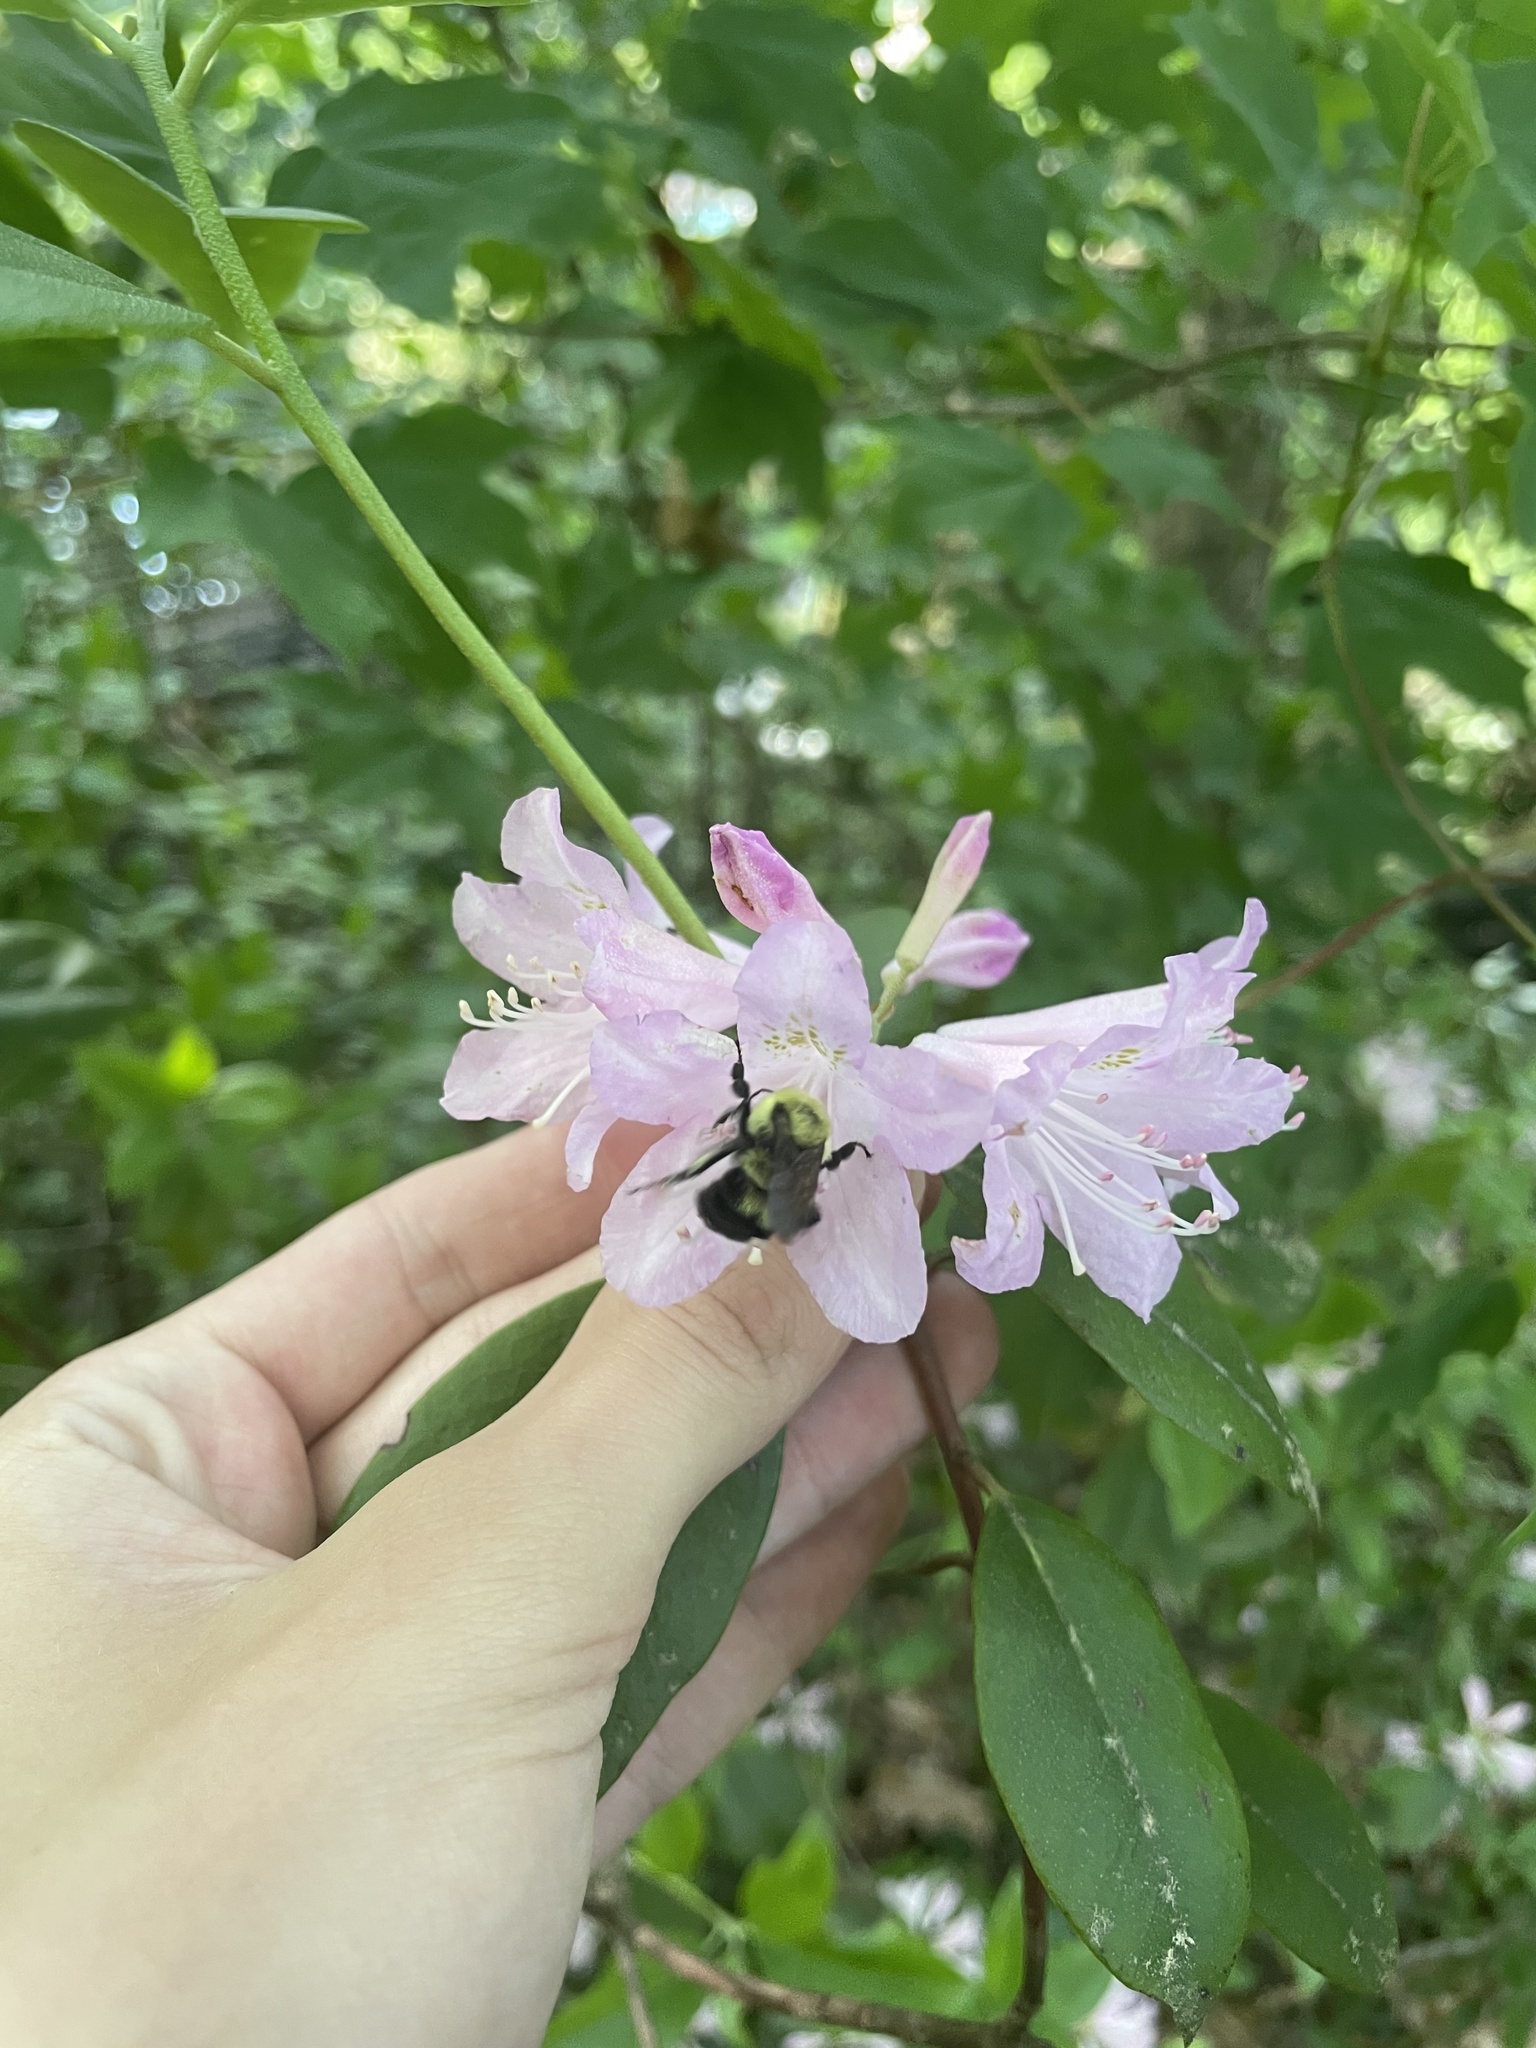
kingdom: Animalia
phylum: Arthropoda
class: Insecta
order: Hymenoptera
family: Apidae
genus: Bombus
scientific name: Bombus bimaculatus
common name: Two-spotted bumble bee
